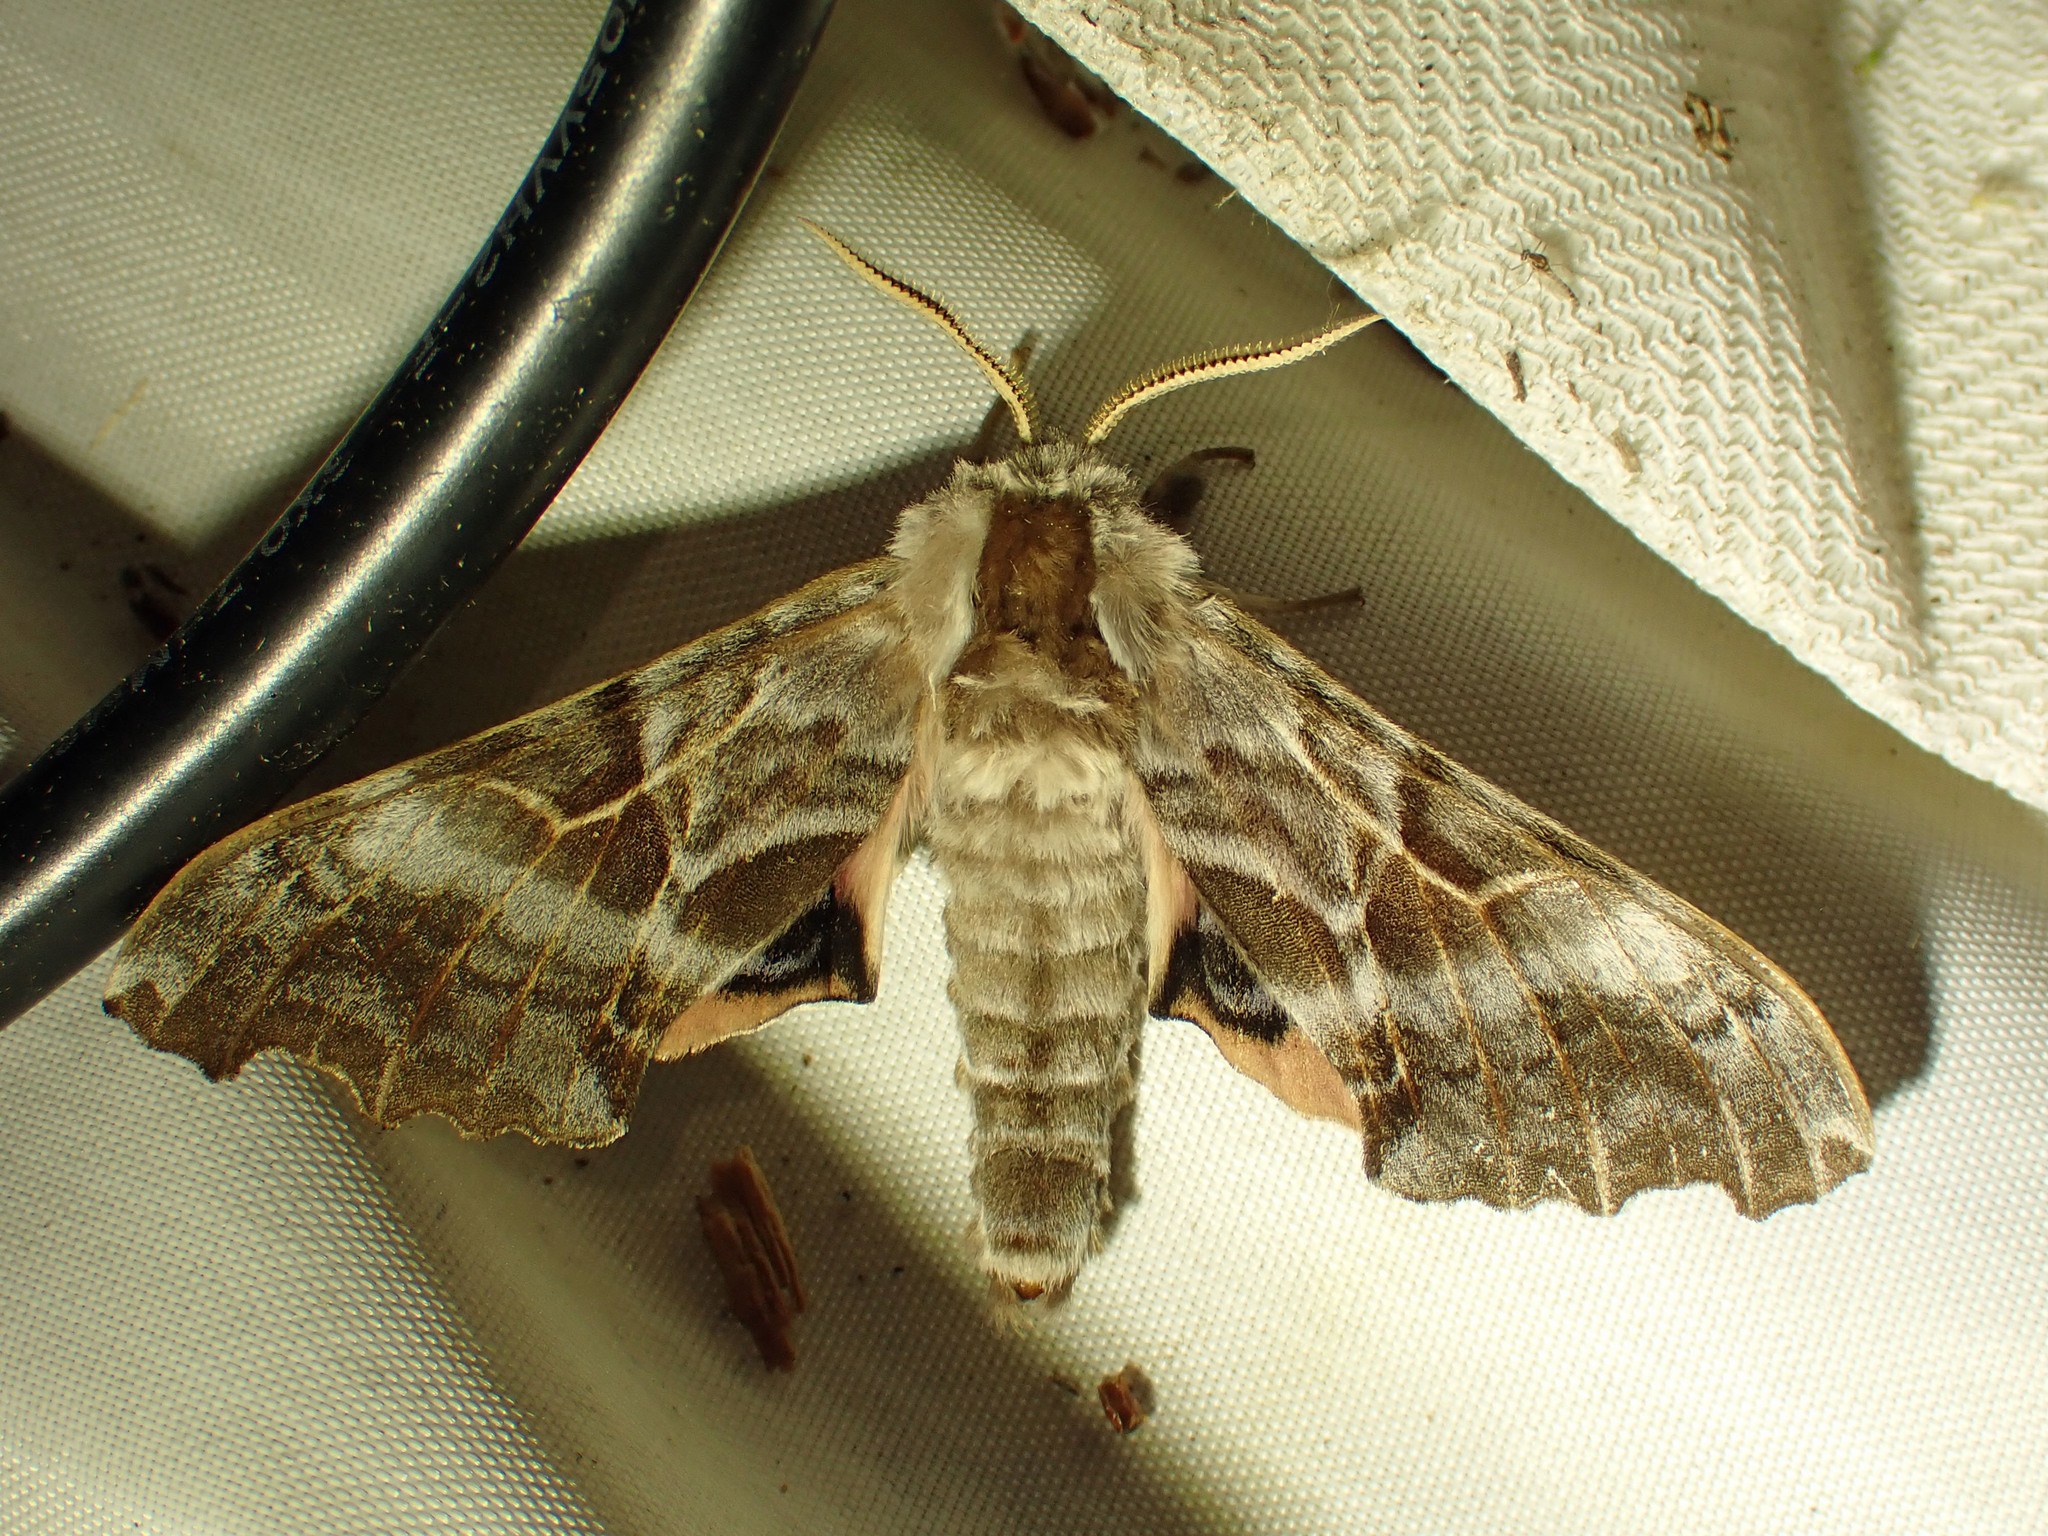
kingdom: Animalia
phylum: Arthropoda
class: Insecta
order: Lepidoptera
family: Sphingidae
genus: Smerinthus
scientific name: Smerinthus cerisyi
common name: Cerisy's sphinx moth
